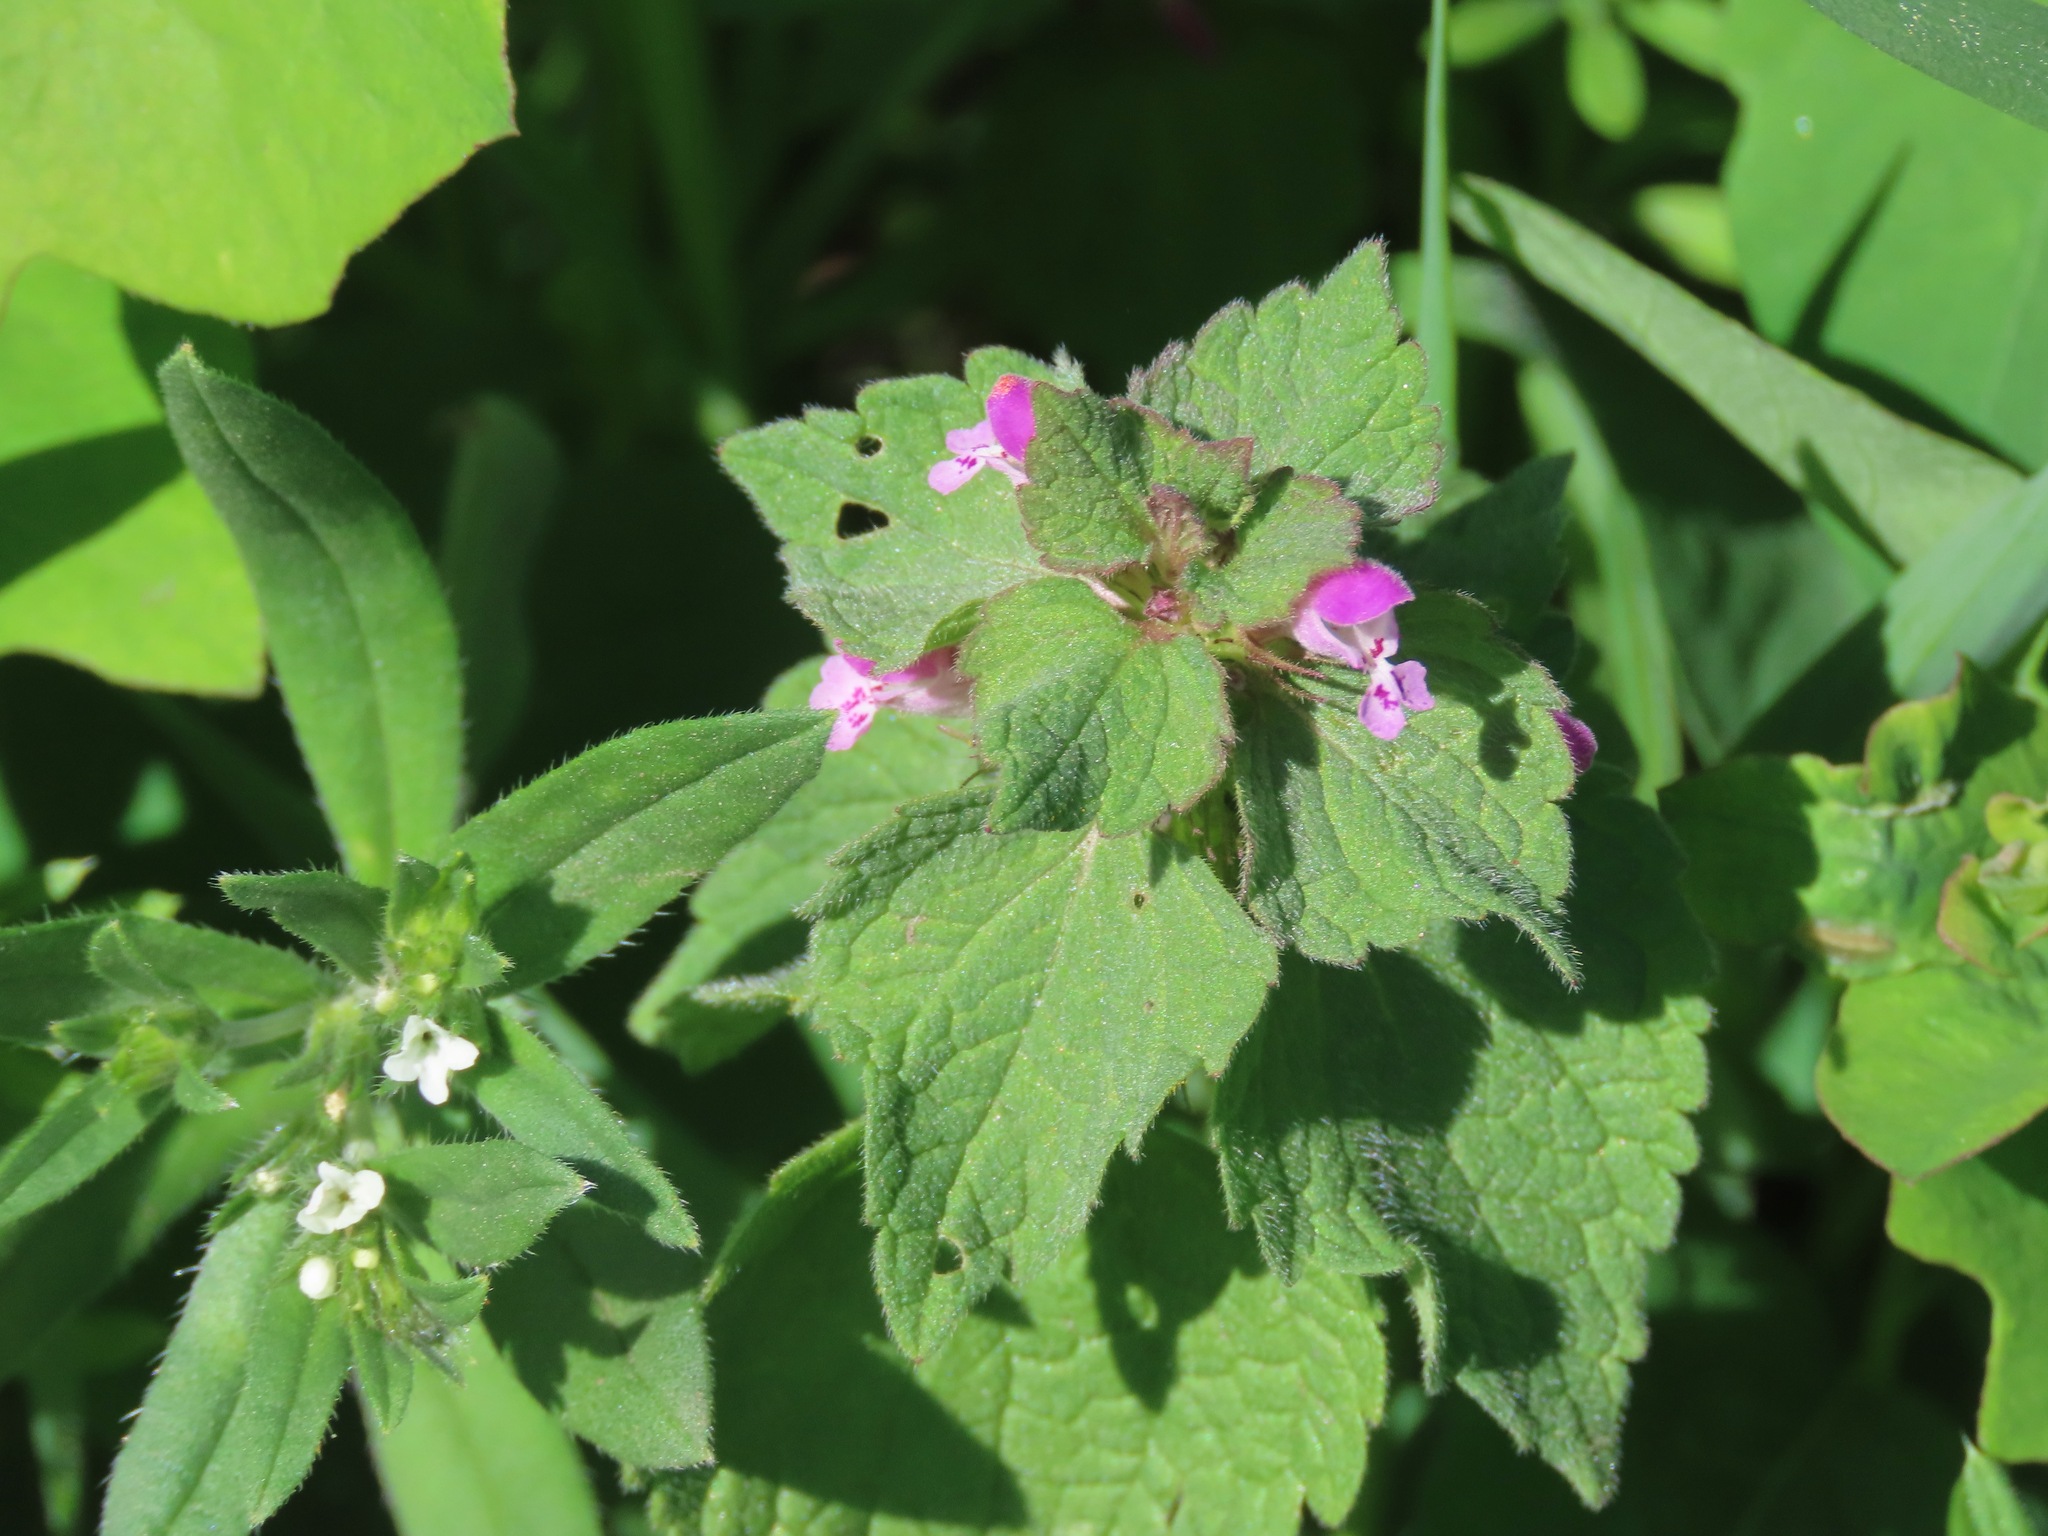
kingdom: Plantae
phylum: Tracheophyta
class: Magnoliopsida
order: Lamiales
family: Lamiaceae
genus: Lamium
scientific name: Lamium purpureum
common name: Red dead-nettle
